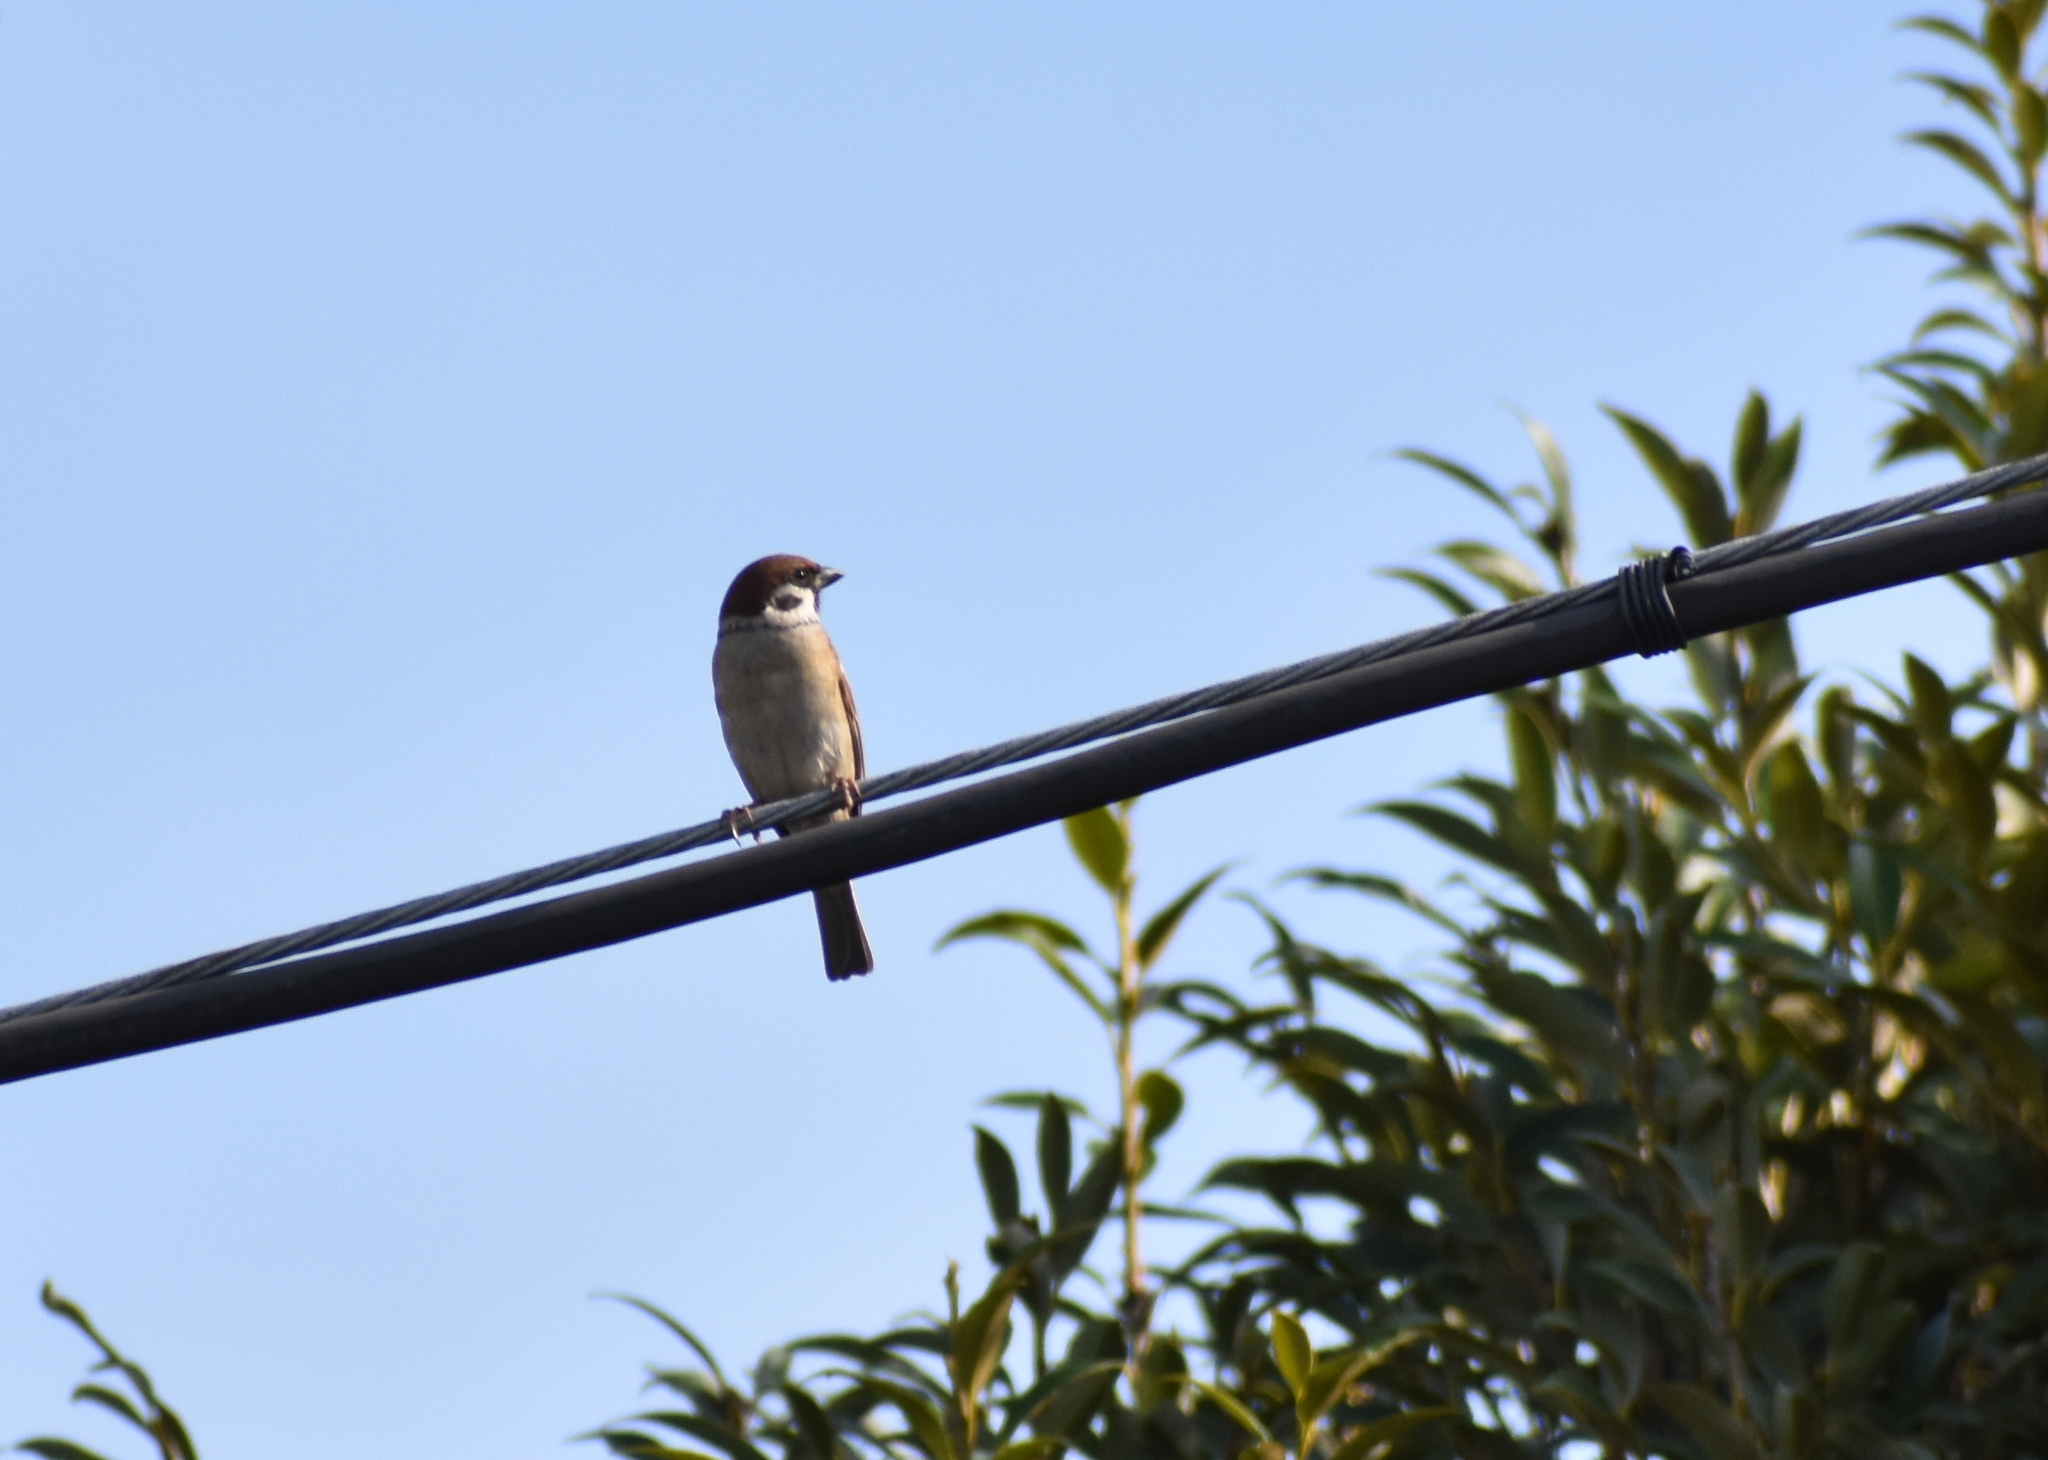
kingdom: Animalia
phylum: Chordata
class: Aves
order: Passeriformes
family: Passeridae
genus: Passer
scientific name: Passer montanus
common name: Eurasian tree sparrow
